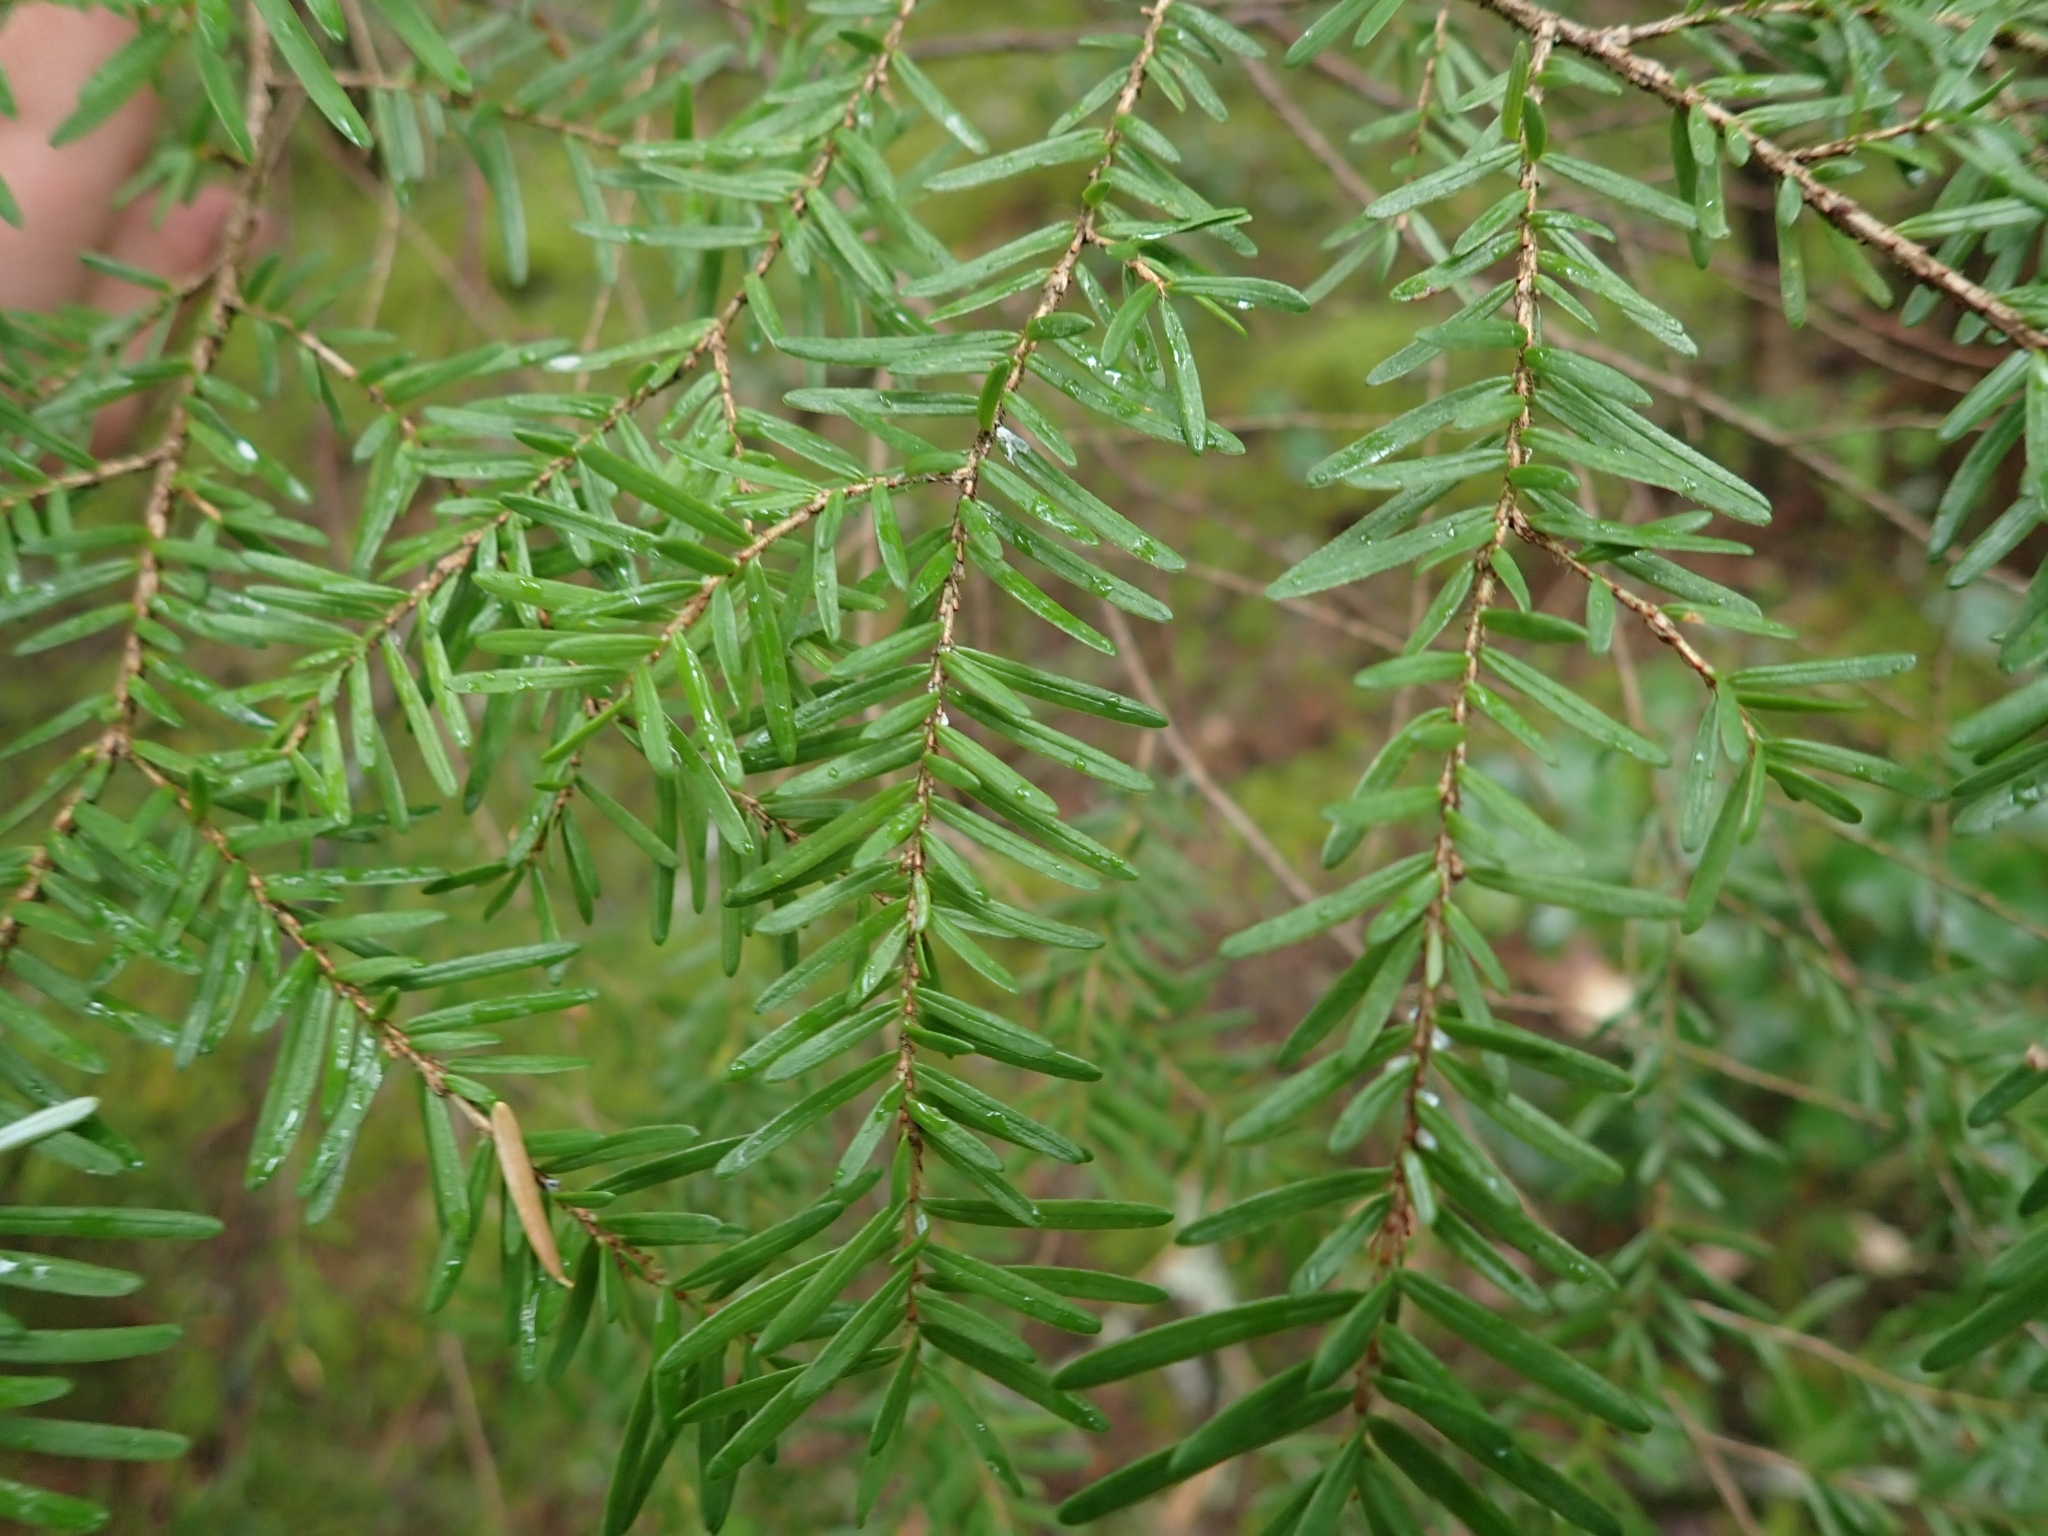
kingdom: Plantae
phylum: Tracheophyta
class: Pinopsida
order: Pinales
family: Pinaceae
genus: Tsuga
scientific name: Tsuga heterophylla
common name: Western hemlock
